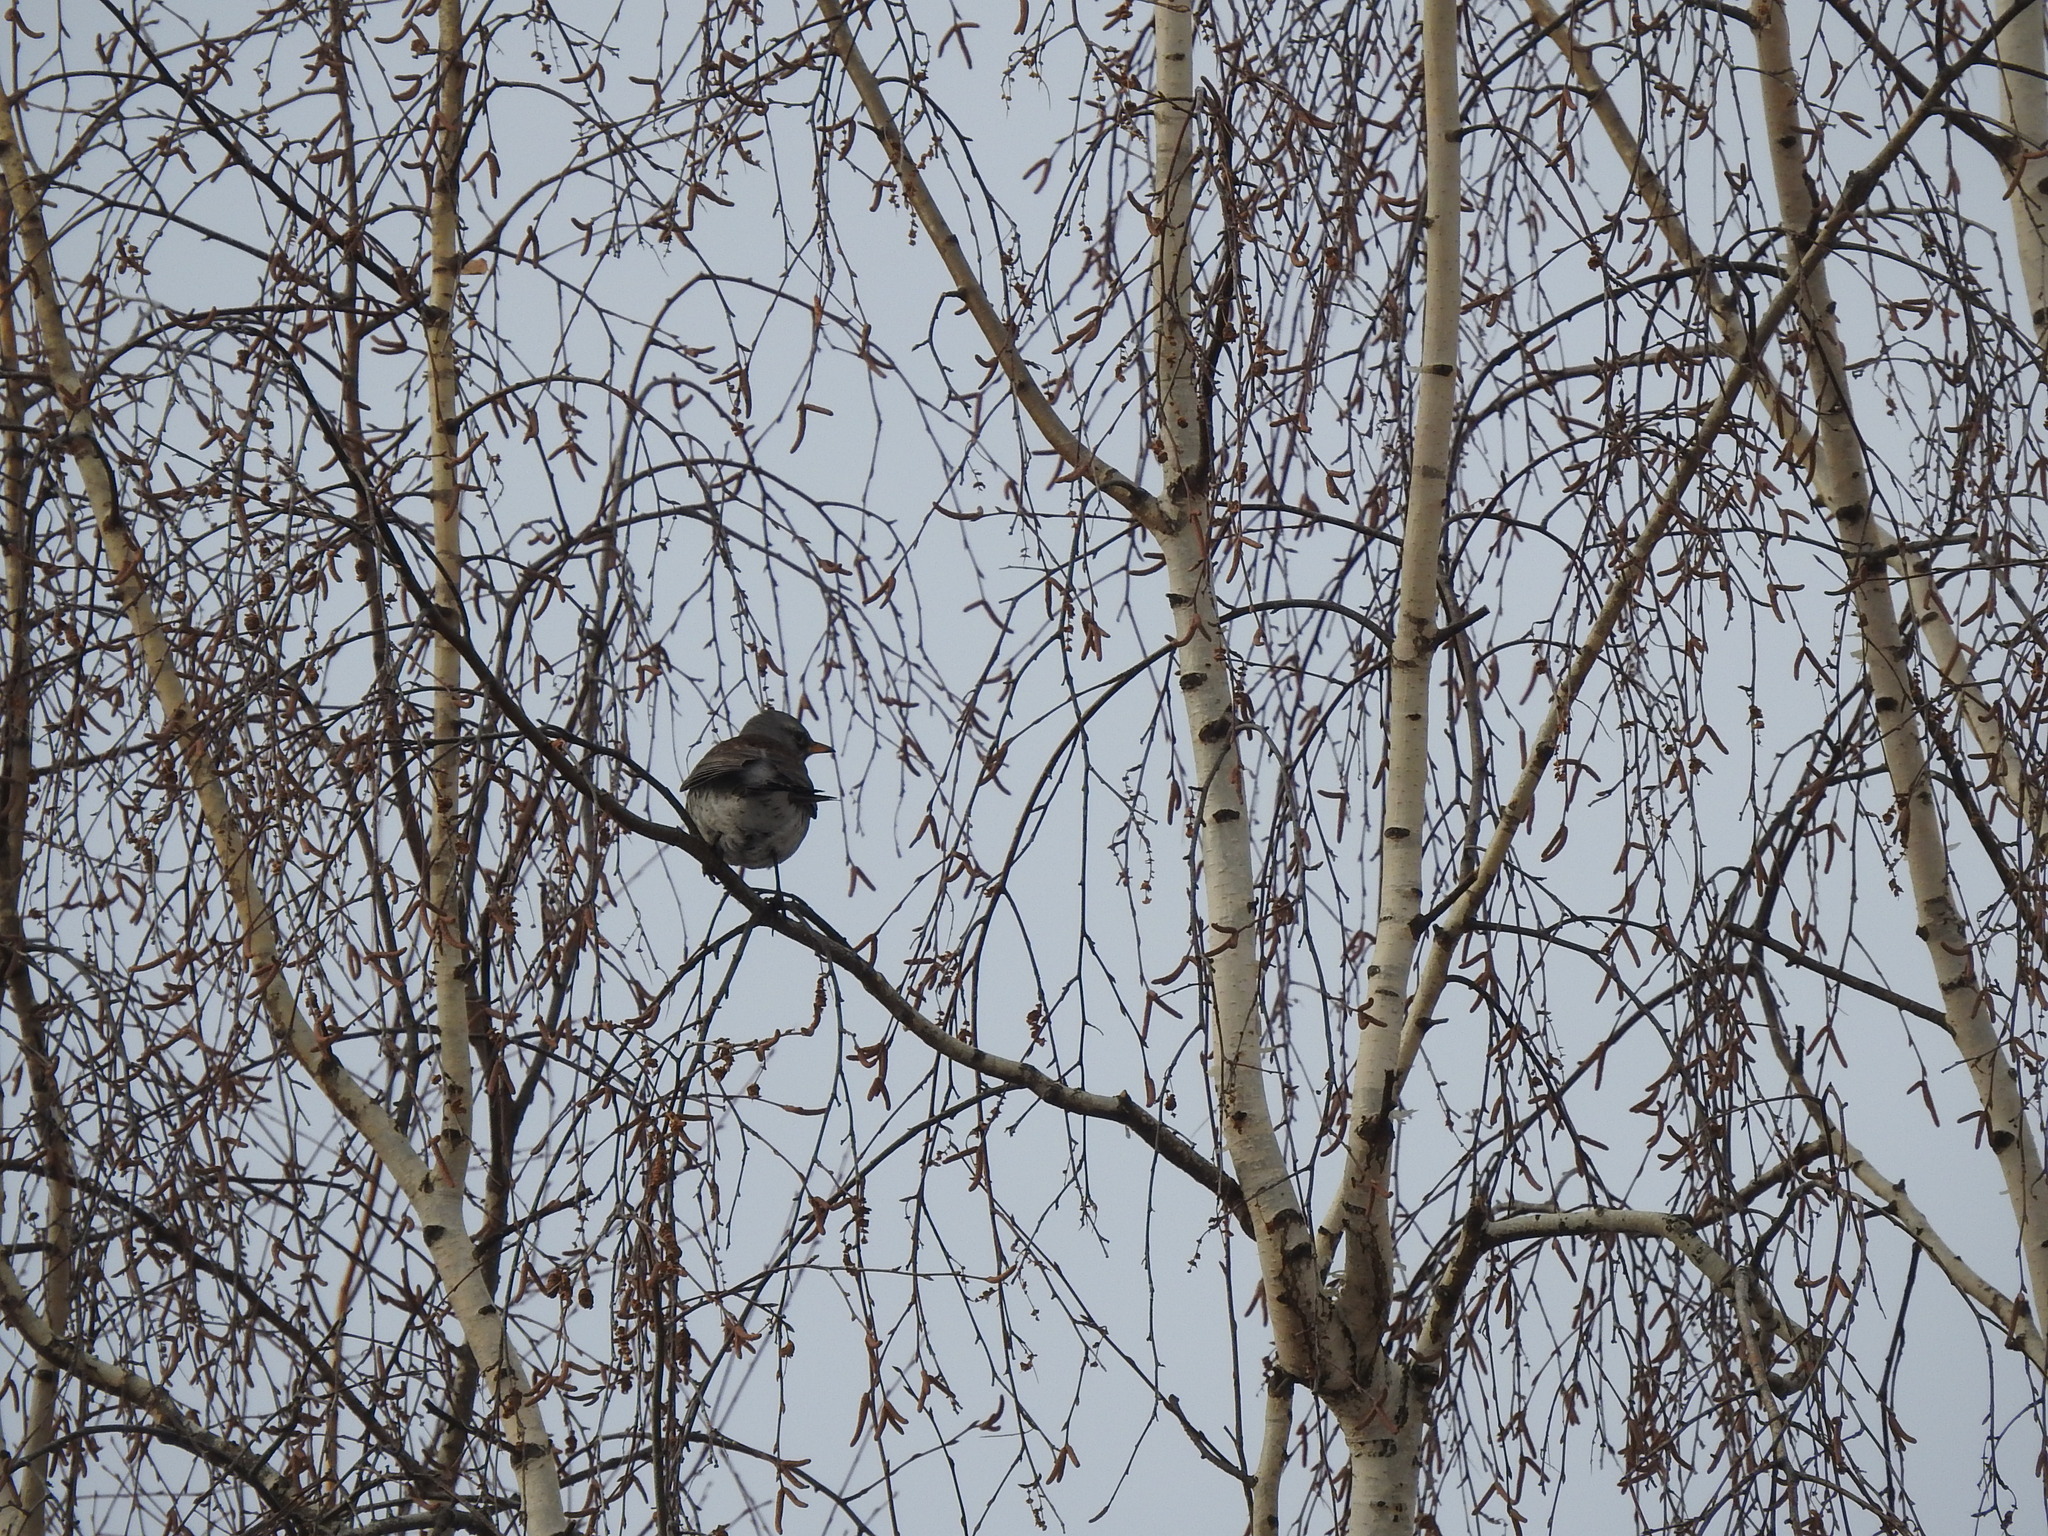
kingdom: Animalia
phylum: Chordata
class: Aves
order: Passeriformes
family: Turdidae
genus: Turdus
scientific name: Turdus pilaris
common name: Fieldfare
